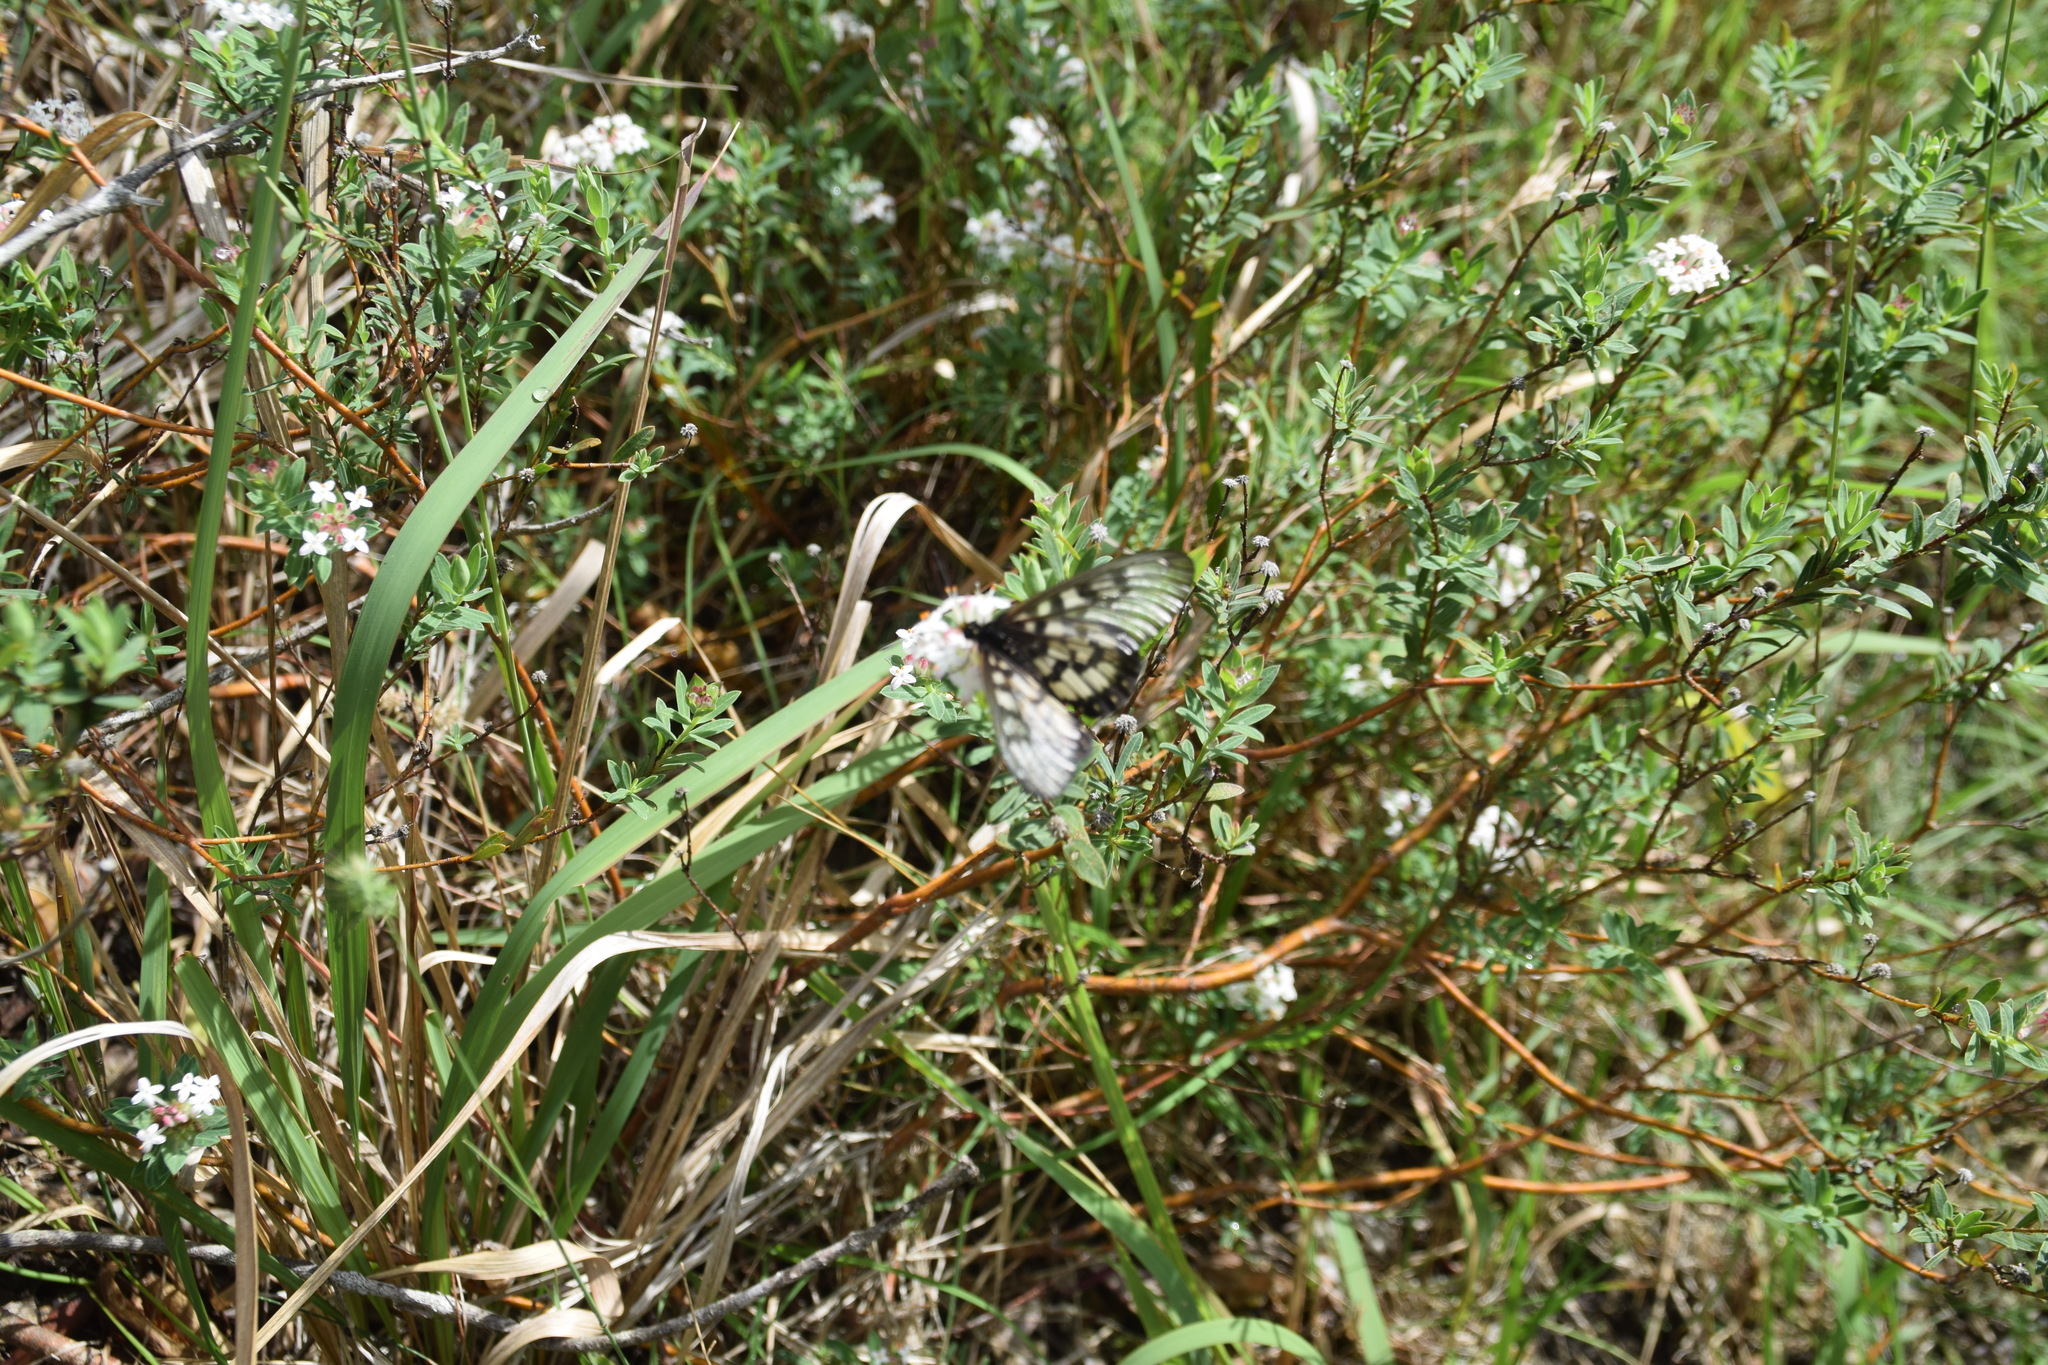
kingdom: Animalia
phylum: Arthropoda
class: Insecta
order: Lepidoptera
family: Nymphalidae
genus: Acraea
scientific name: Acraea andromacha
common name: Glasswing
